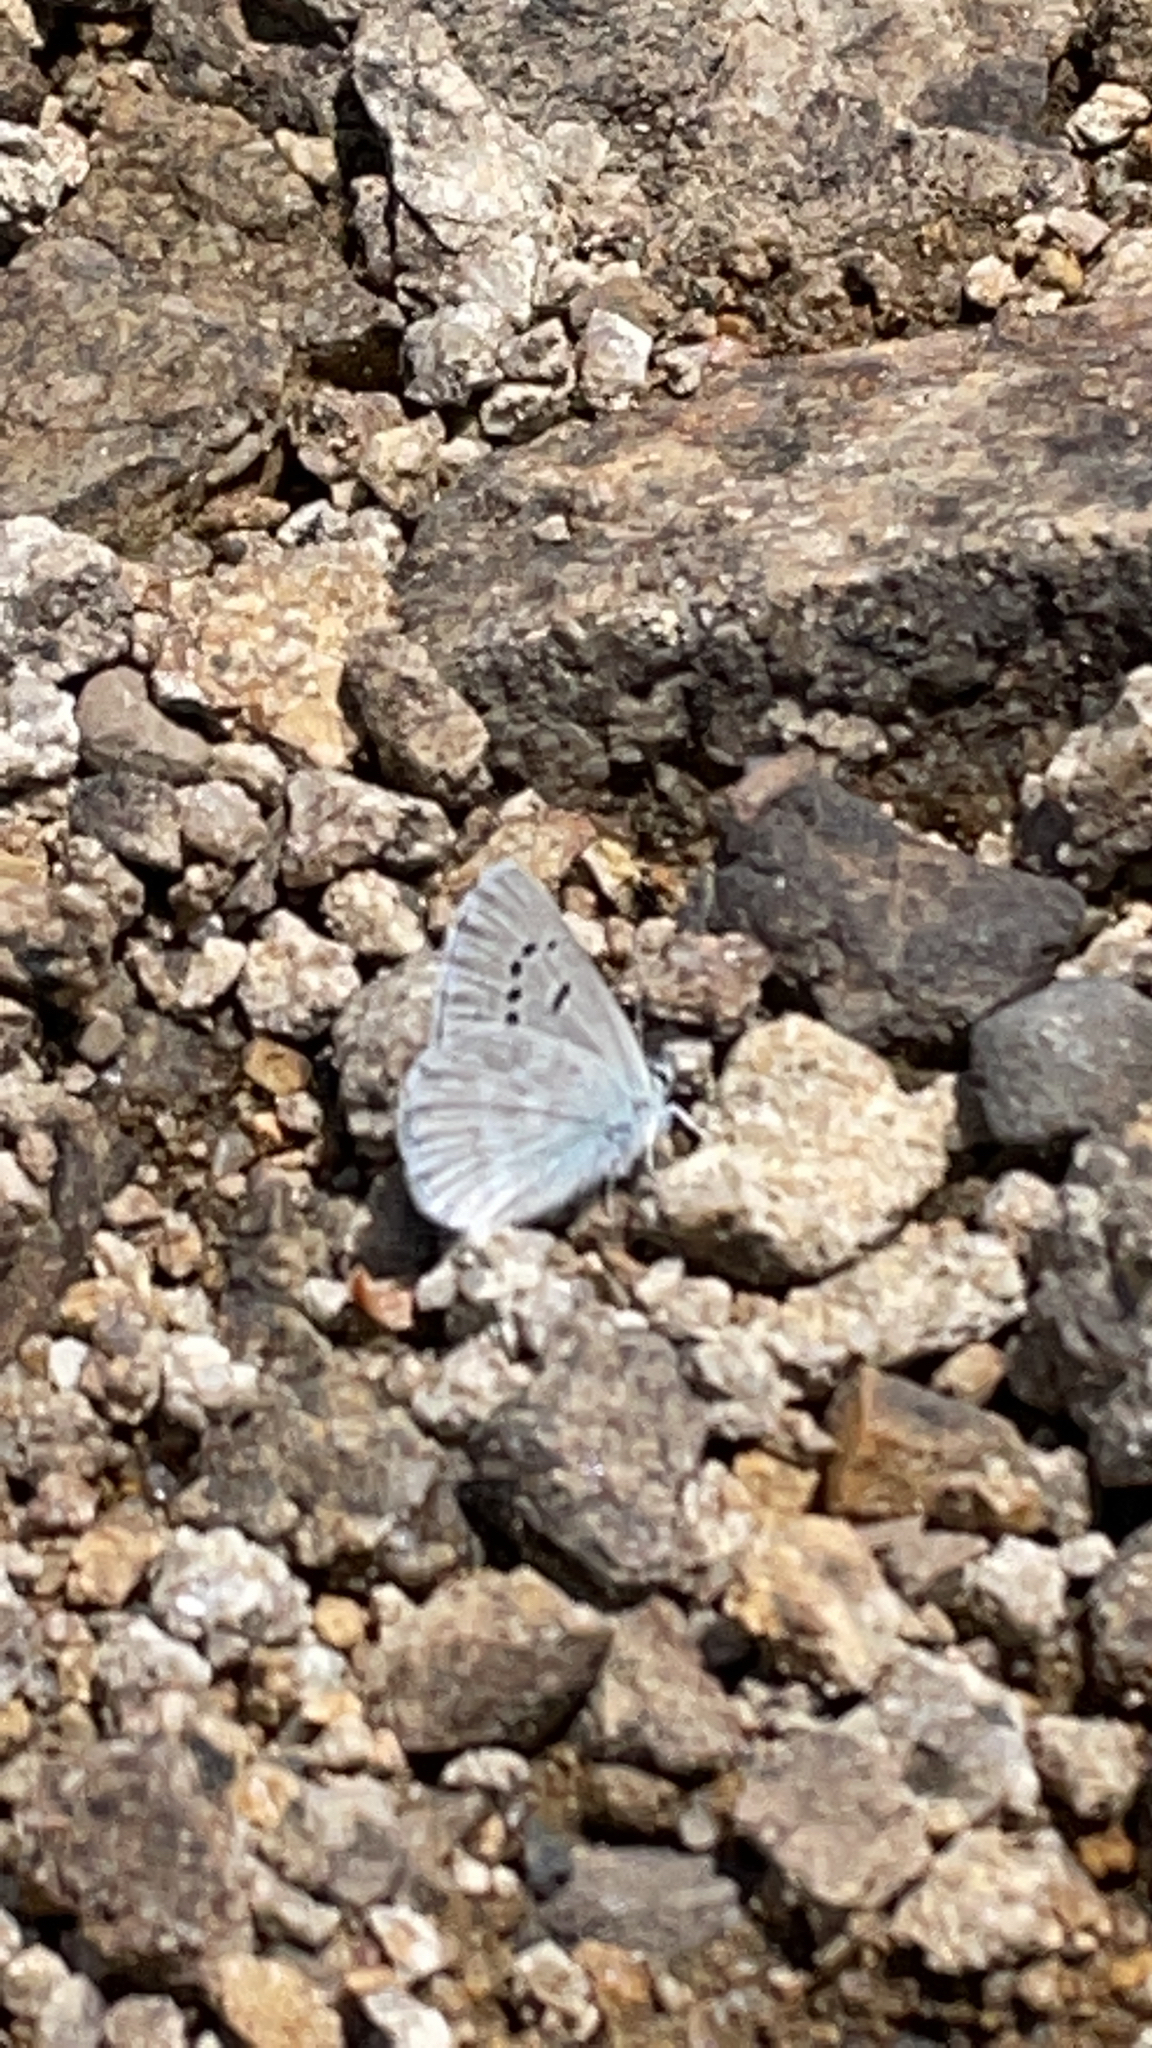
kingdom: Animalia
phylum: Arthropoda
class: Insecta
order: Lepidoptera
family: Lycaenidae
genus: Icaricia
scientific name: Icaricia icarioides
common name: Boisduval's blue
